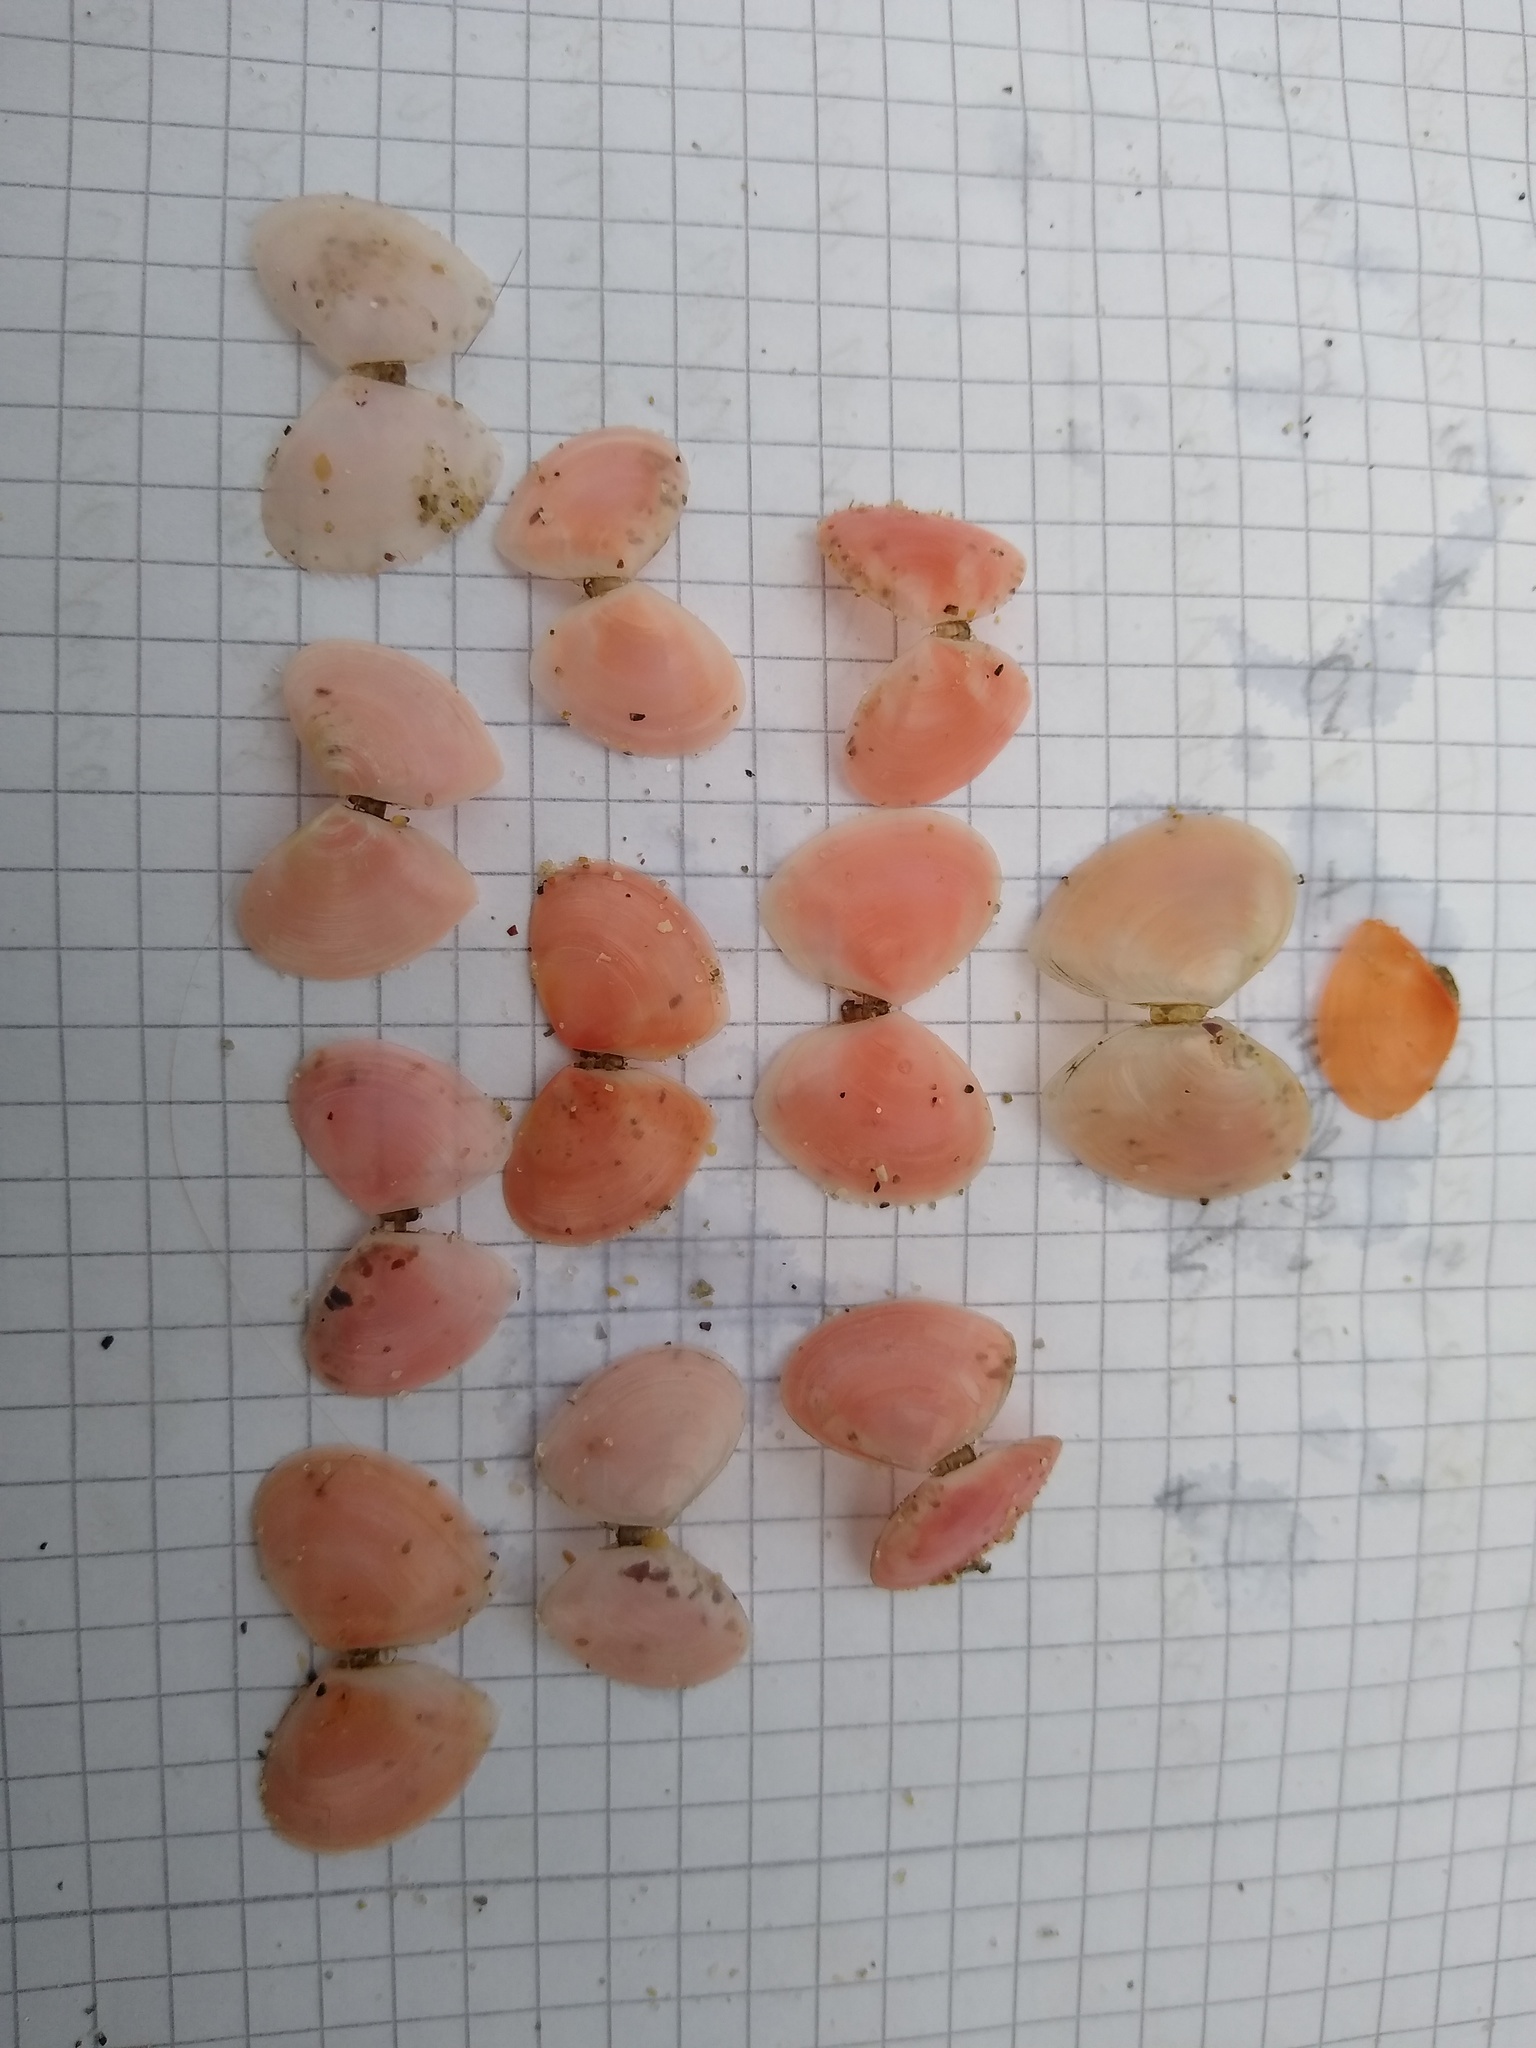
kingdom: Animalia
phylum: Mollusca
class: Bivalvia
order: Cardiida
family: Tellinidae
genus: Macomangulus
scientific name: Macomangulus tenuis
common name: Thin tellin
